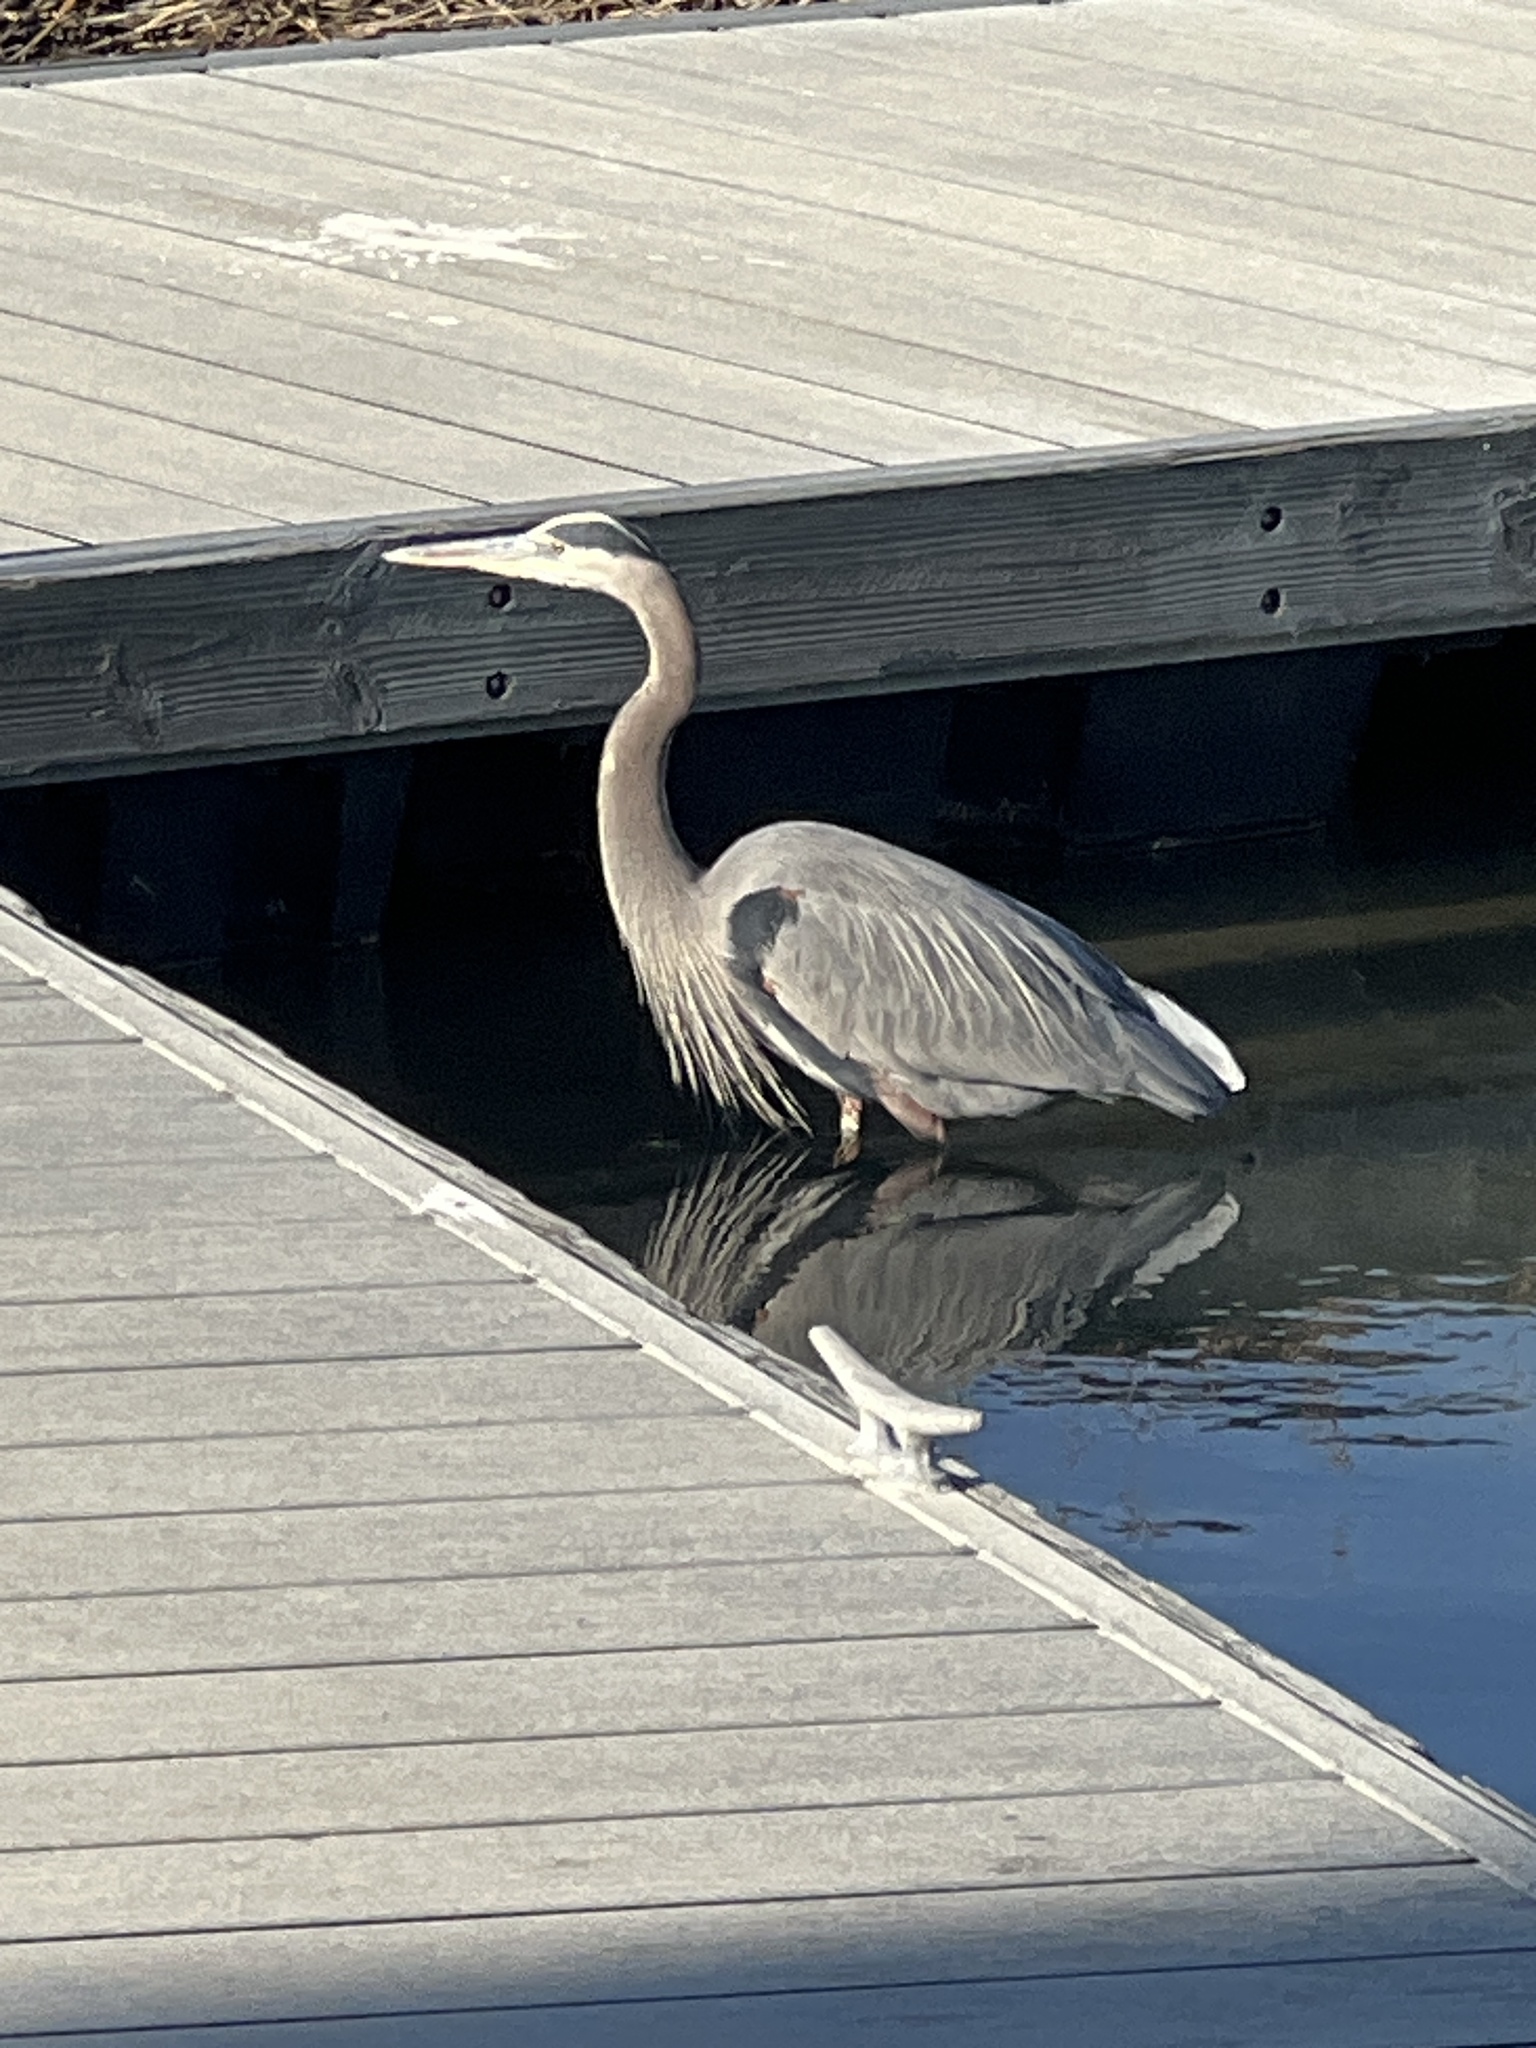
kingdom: Animalia
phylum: Chordata
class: Aves
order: Pelecaniformes
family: Ardeidae
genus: Ardea
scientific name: Ardea herodias
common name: Great blue heron
